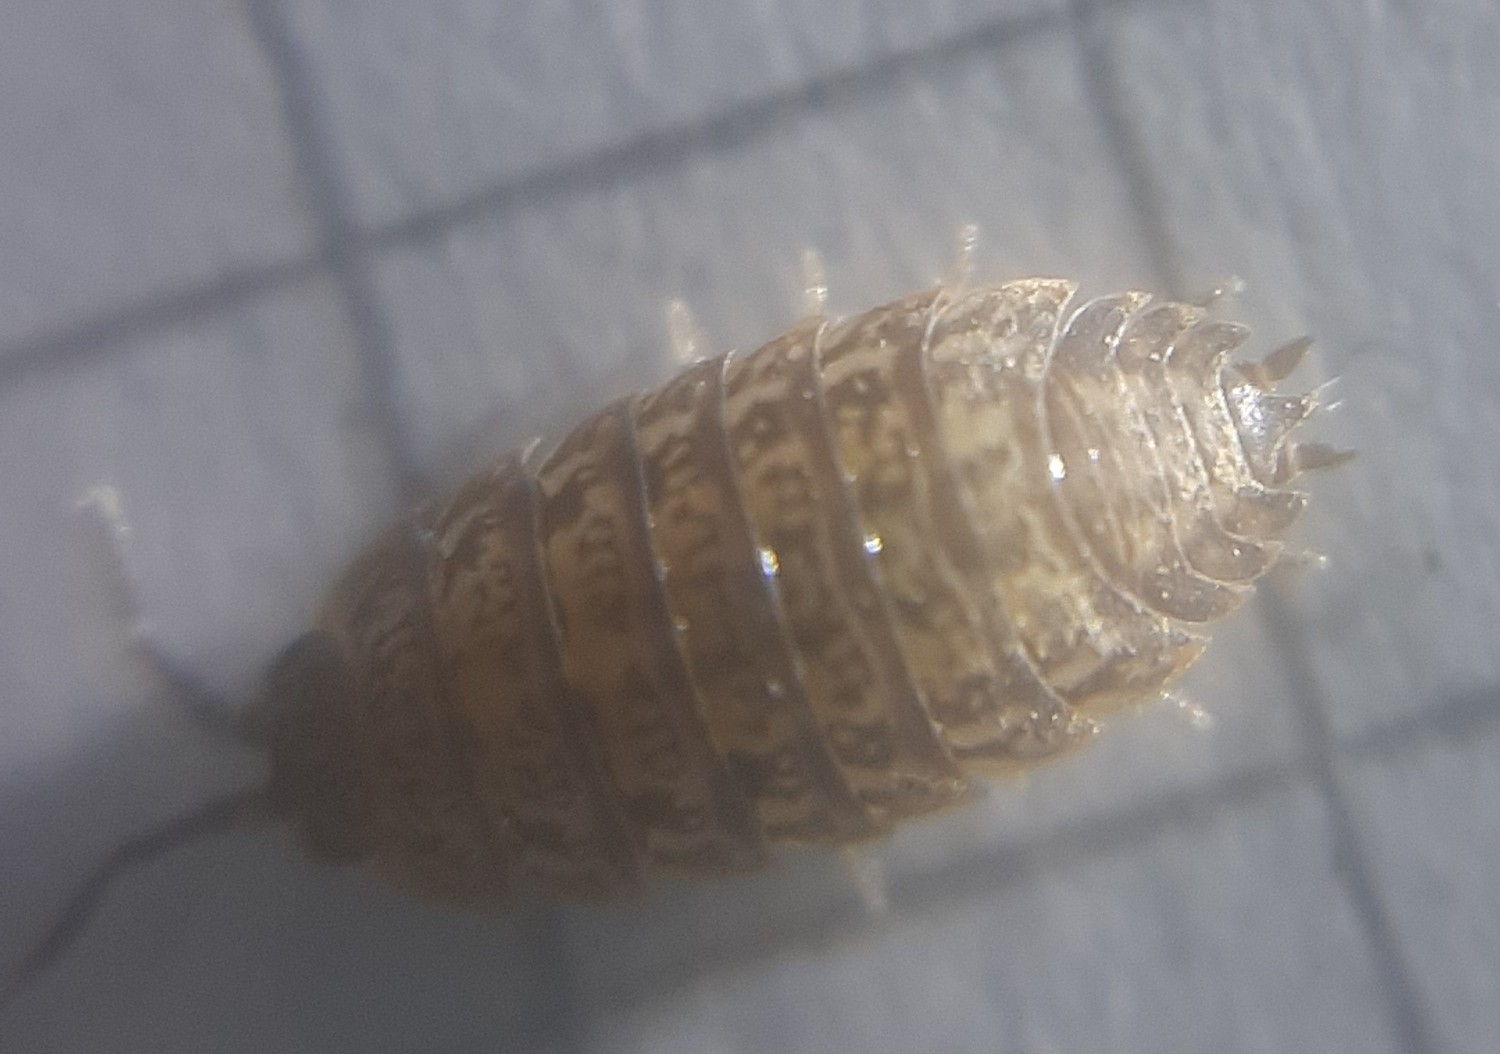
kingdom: Animalia
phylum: Arthropoda
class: Malacostraca
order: Isopoda
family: Trachelipodidae
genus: Trachelipus
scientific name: Trachelipus razzautii
